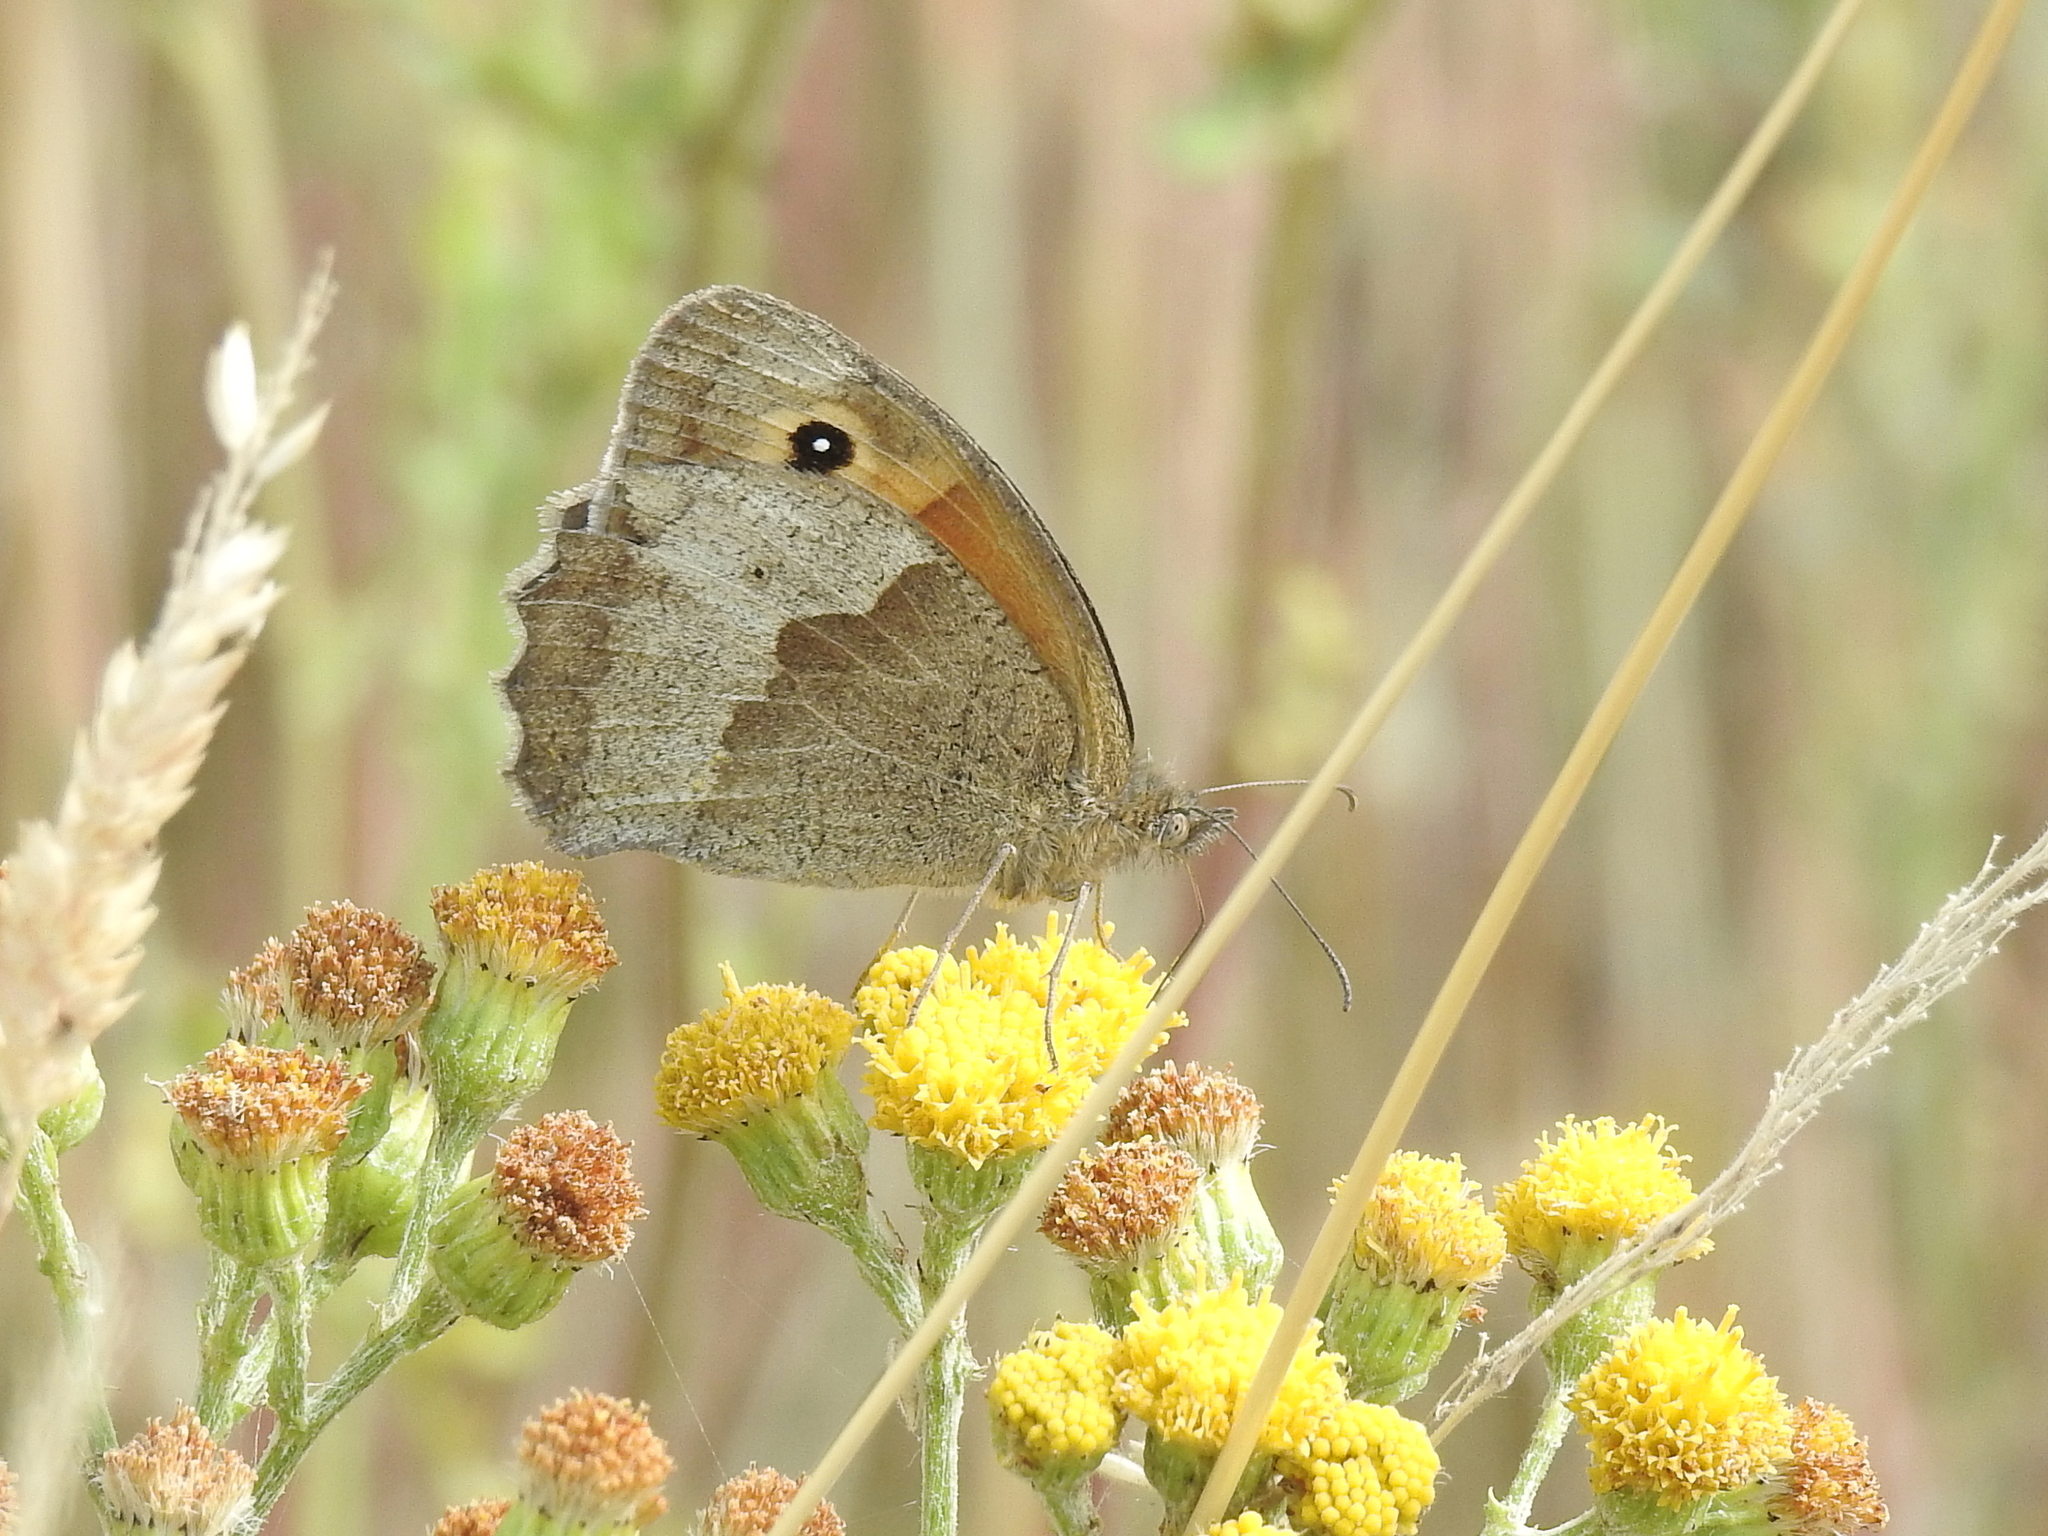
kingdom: Animalia
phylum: Arthropoda
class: Insecta
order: Lepidoptera
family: Nymphalidae
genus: Maniola
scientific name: Maniola jurtina
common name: Meadow brown
